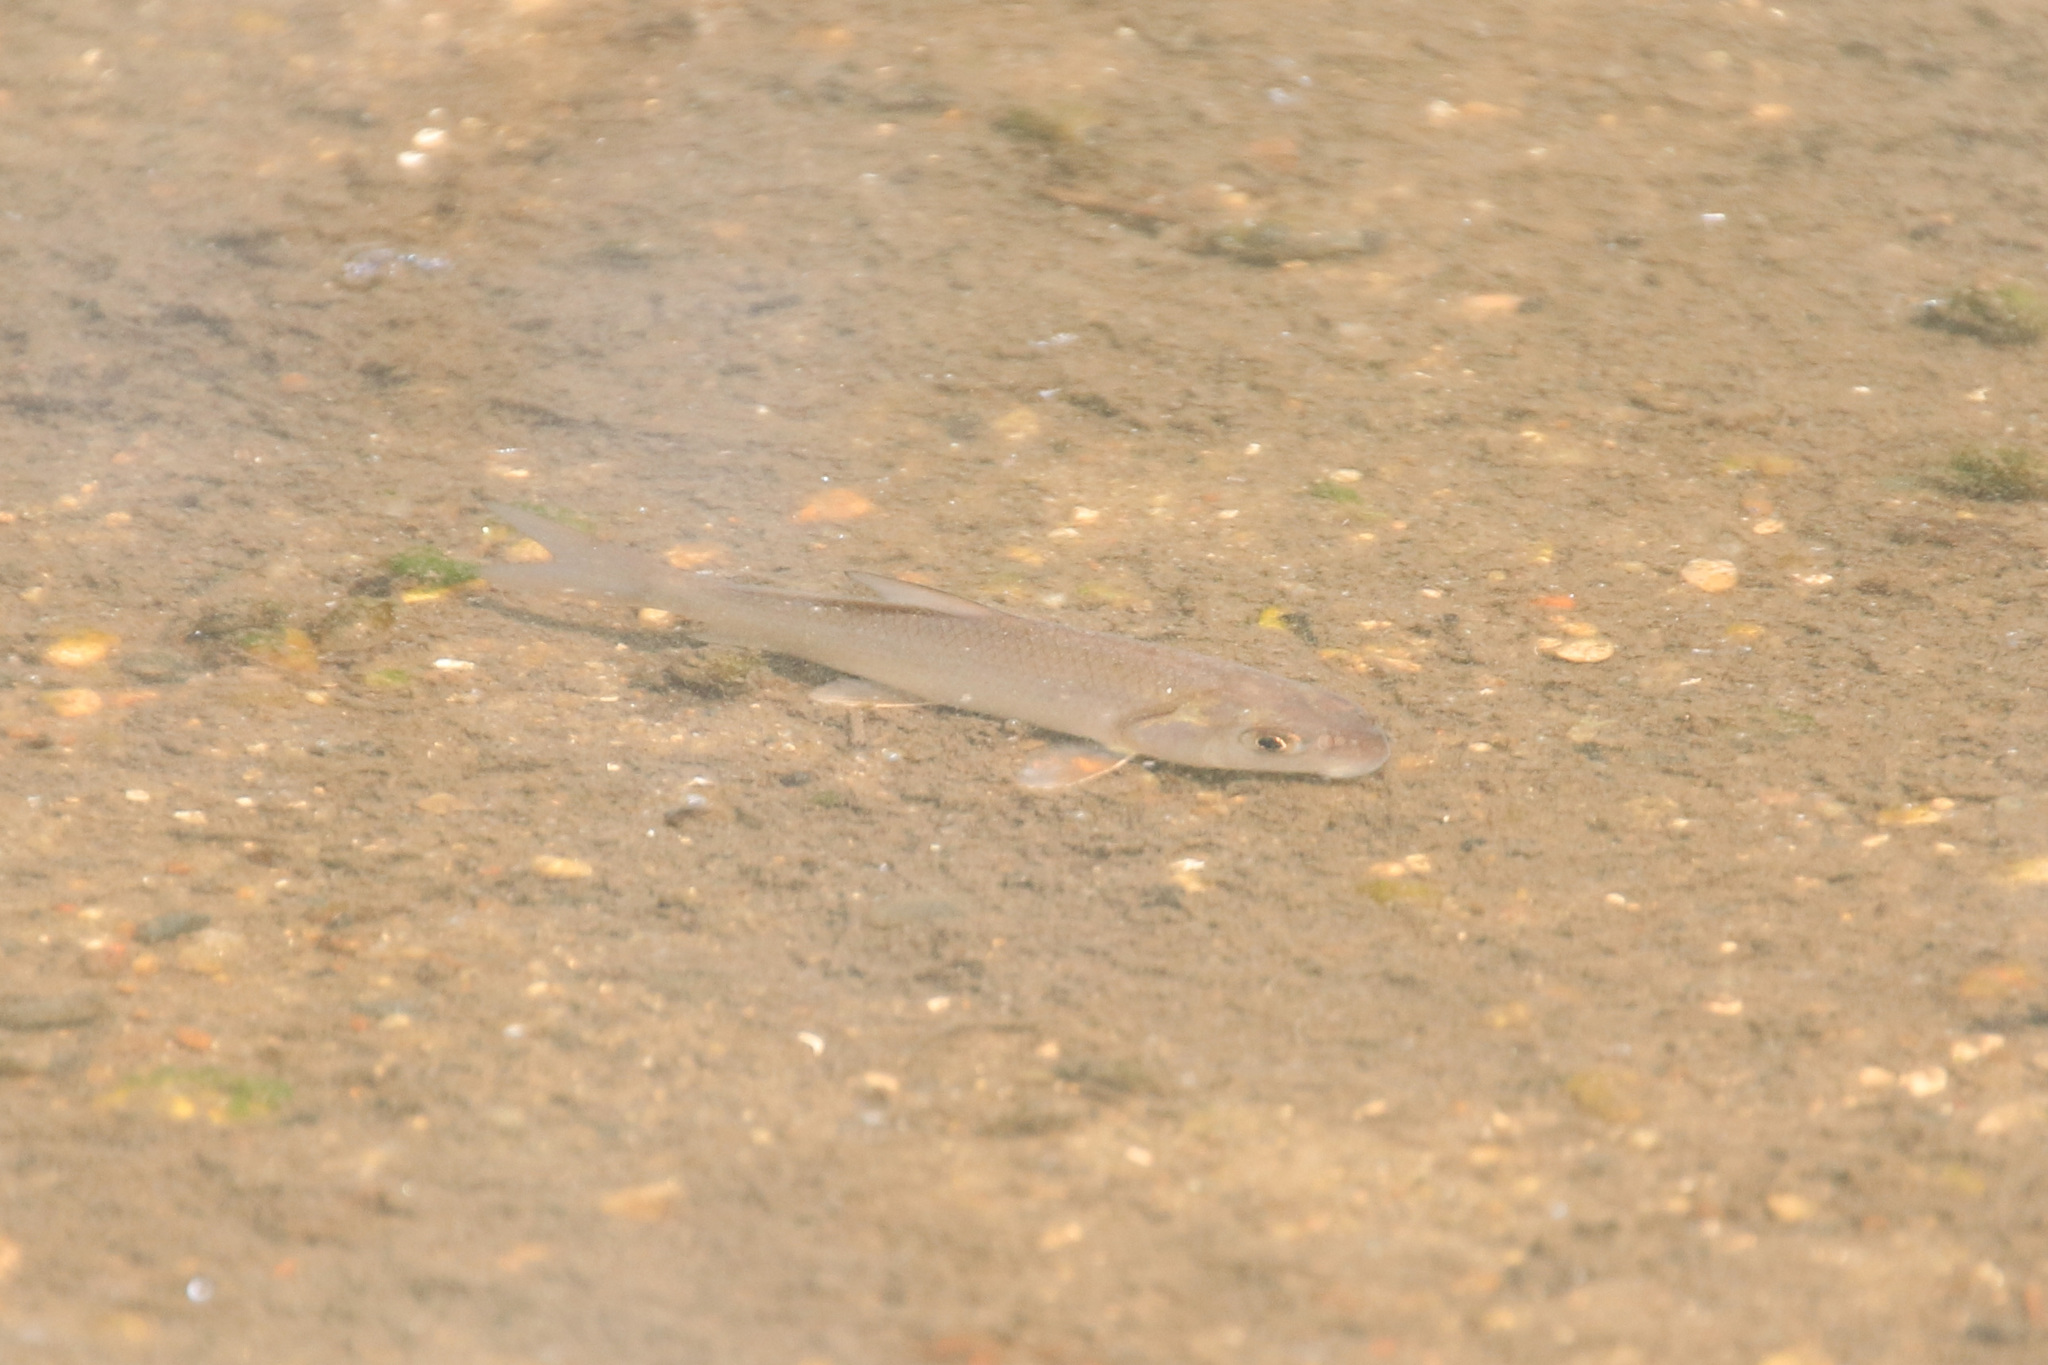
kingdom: Animalia
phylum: Chordata
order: Cypriniformes
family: Catostomidae
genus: Carpiodes
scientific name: Carpiodes
